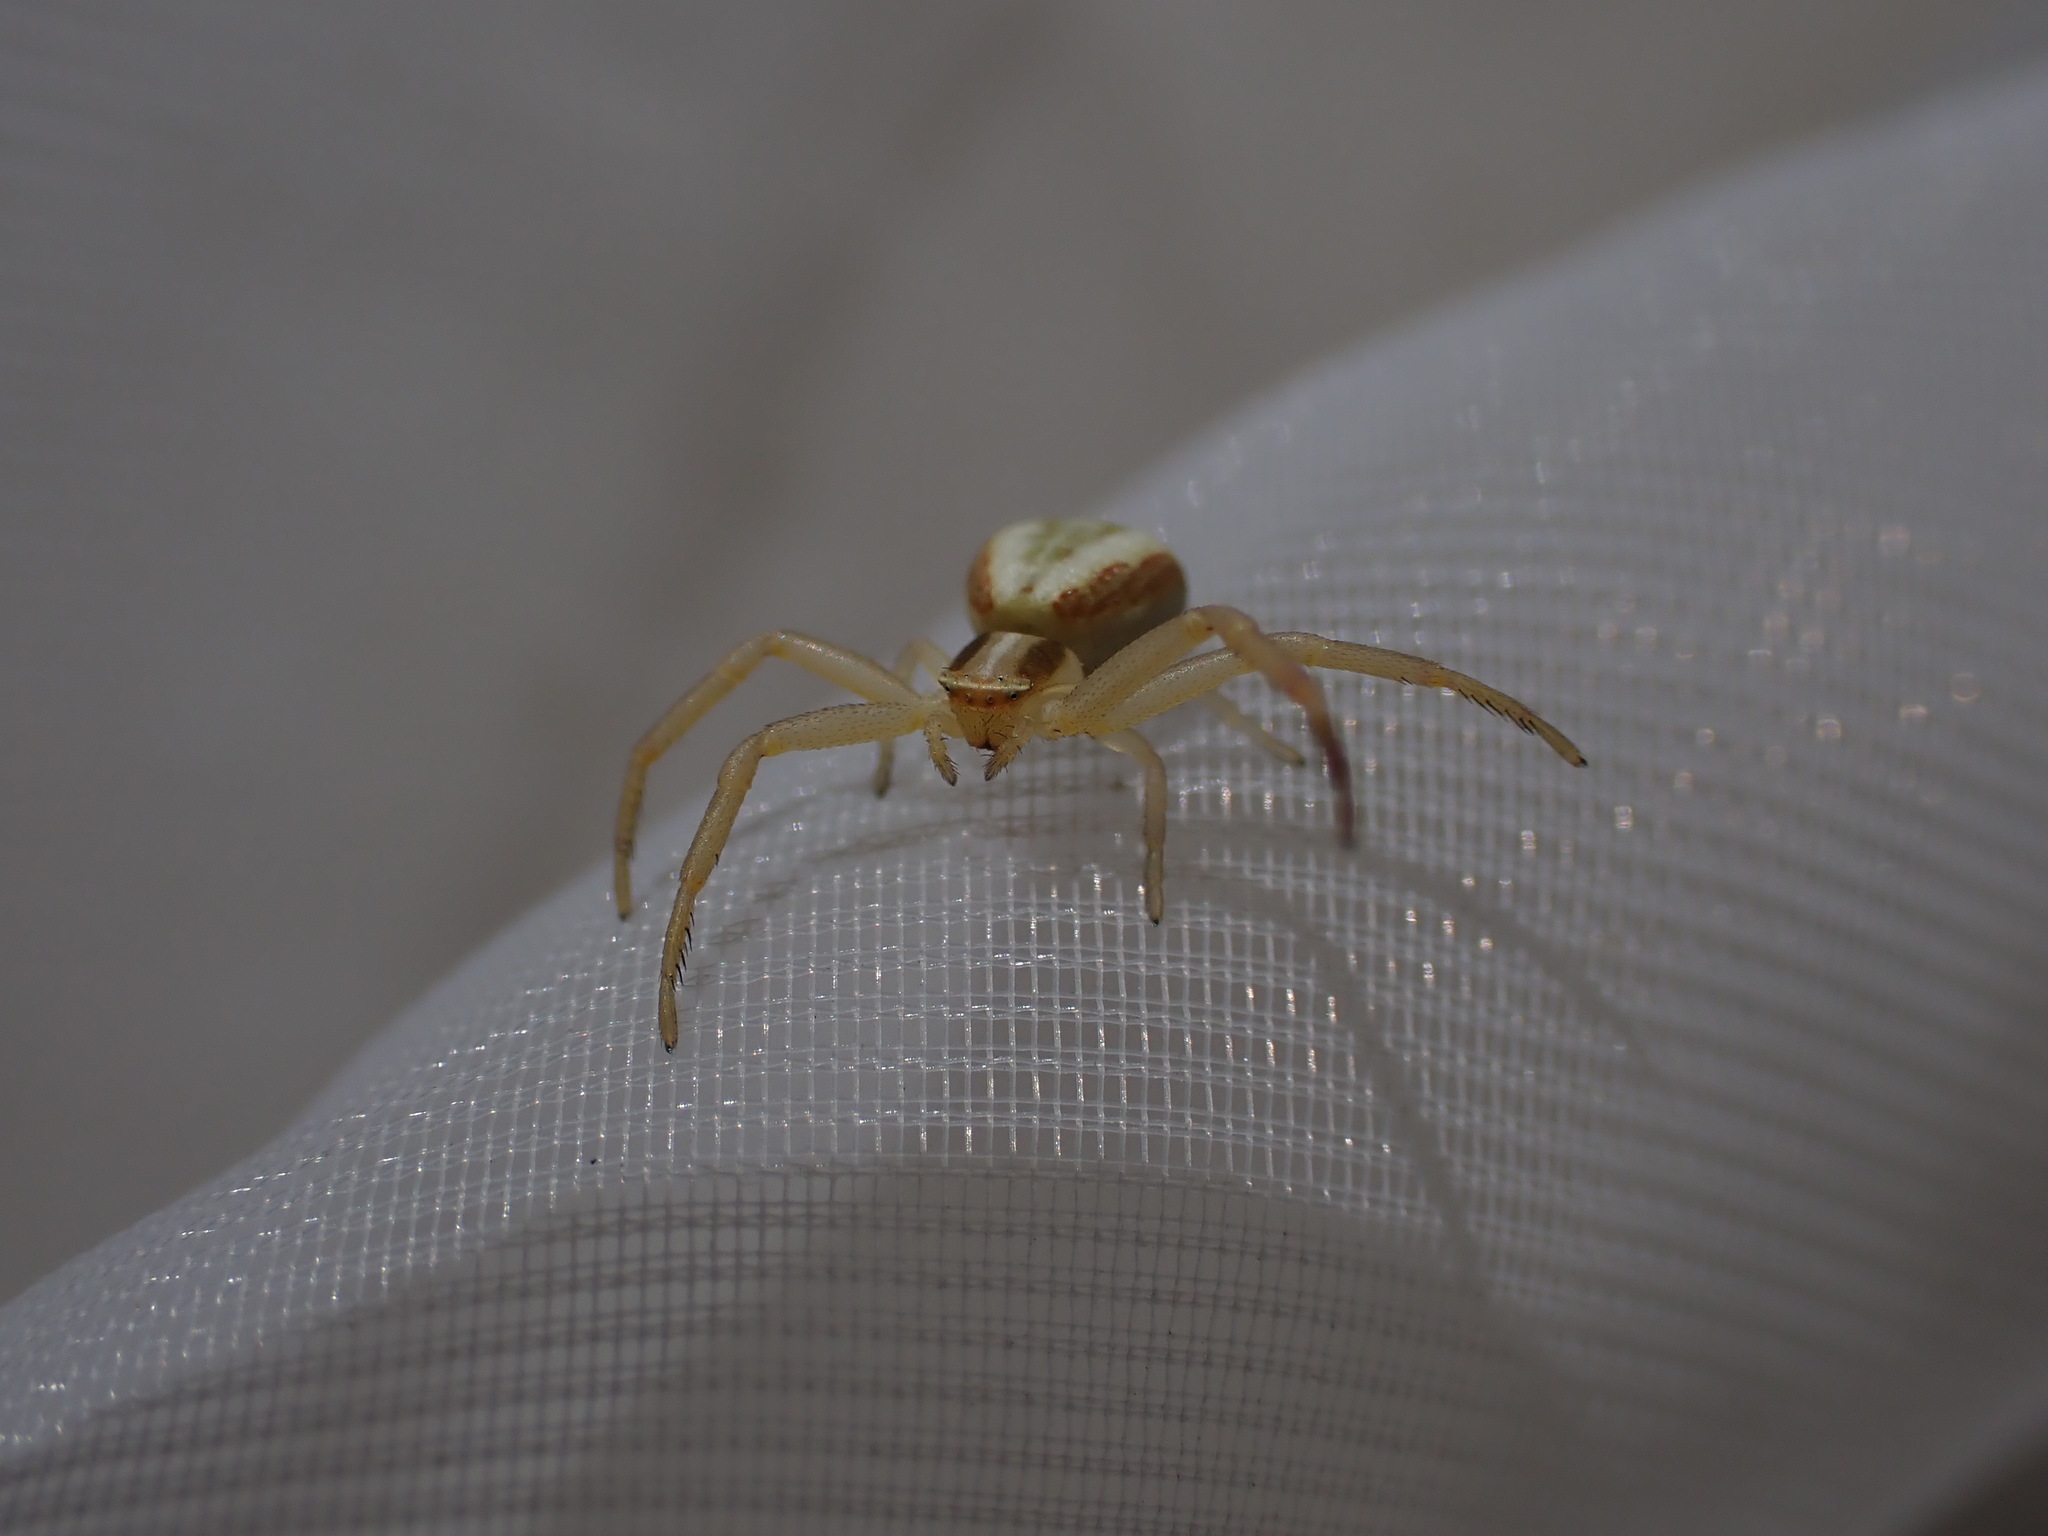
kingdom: Animalia
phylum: Arthropoda
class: Arachnida
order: Araneae
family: Thomisidae
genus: Runcinia
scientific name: Runcinia grammica
